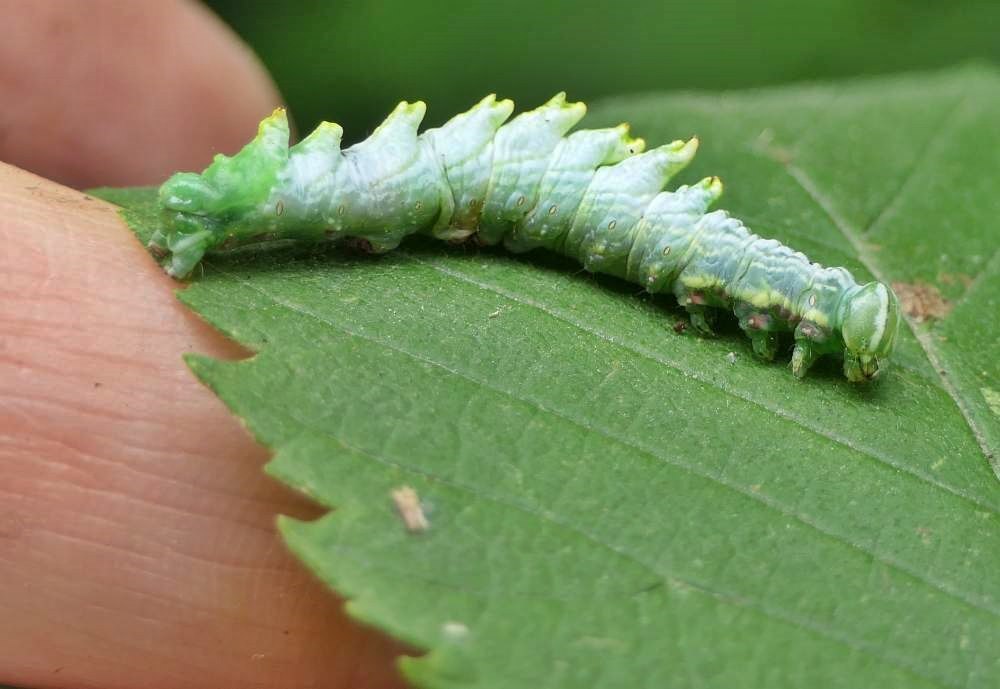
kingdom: Animalia
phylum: Arthropoda
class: Insecta
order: Lepidoptera
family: Notodontidae
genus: Nerice
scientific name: Nerice bidentata
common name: Double-toothed prominent
